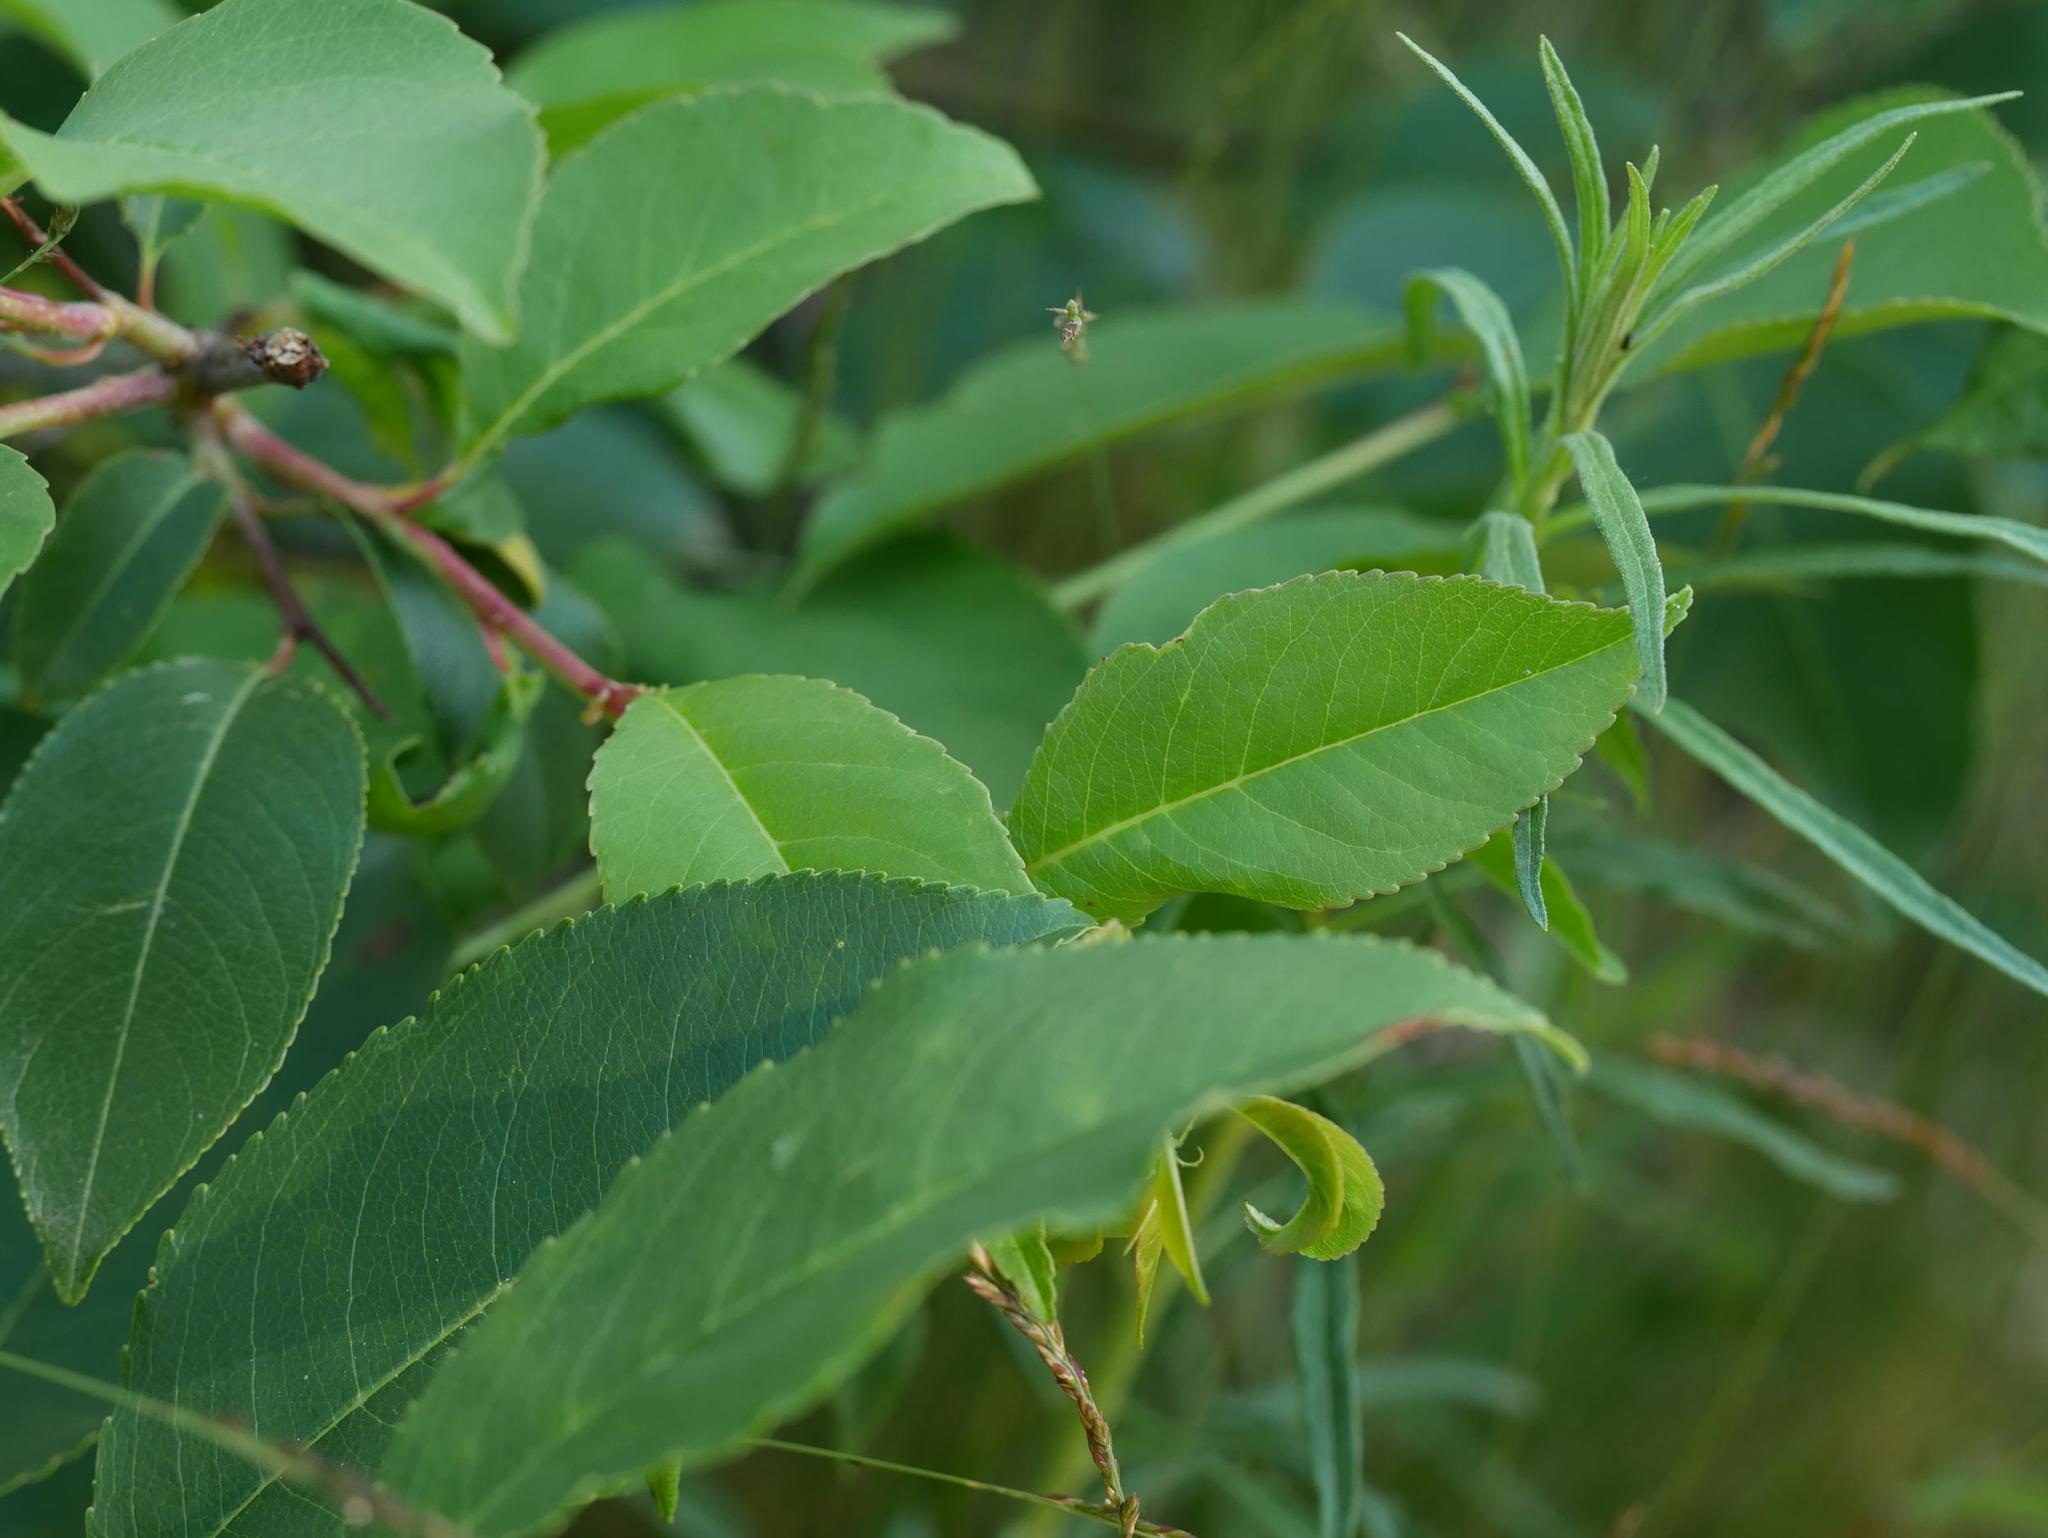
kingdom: Plantae
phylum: Tracheophyta
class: Magnoliopsida
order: Rosales
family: Rosaceae
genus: Prunus
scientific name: Prunus serotina
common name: Black cherry
